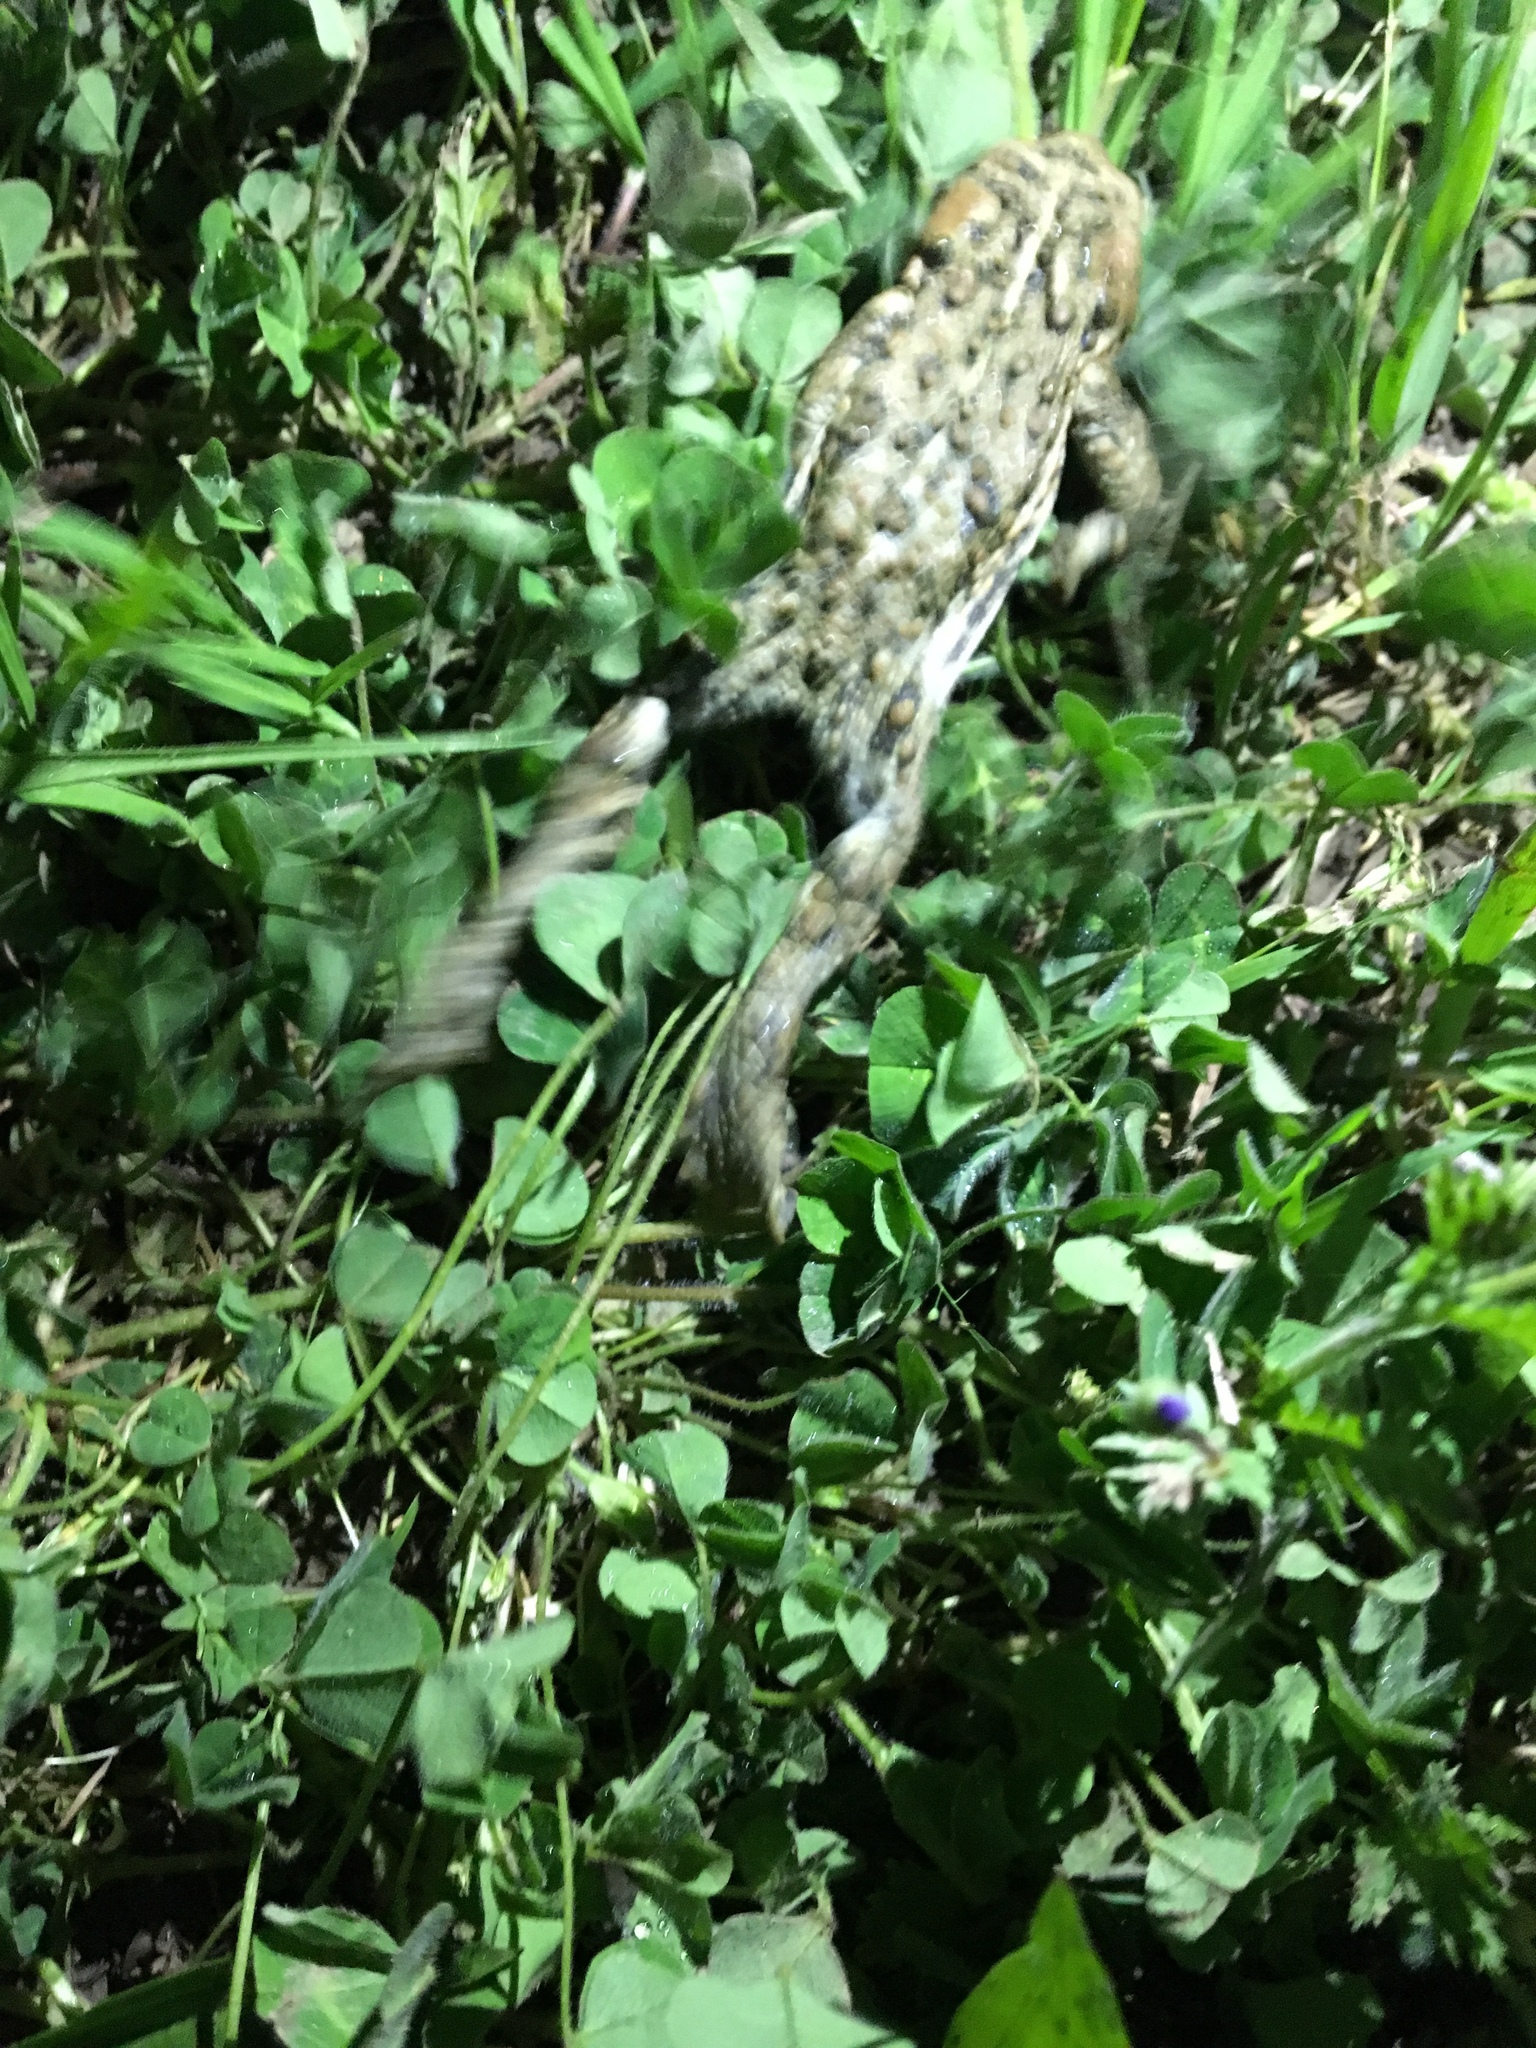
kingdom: Animalia
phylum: Chordata
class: Amphibia
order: Anura
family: Bufonidae
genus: Anaxyrus
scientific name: Anaxyrus boreas
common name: Western toad
